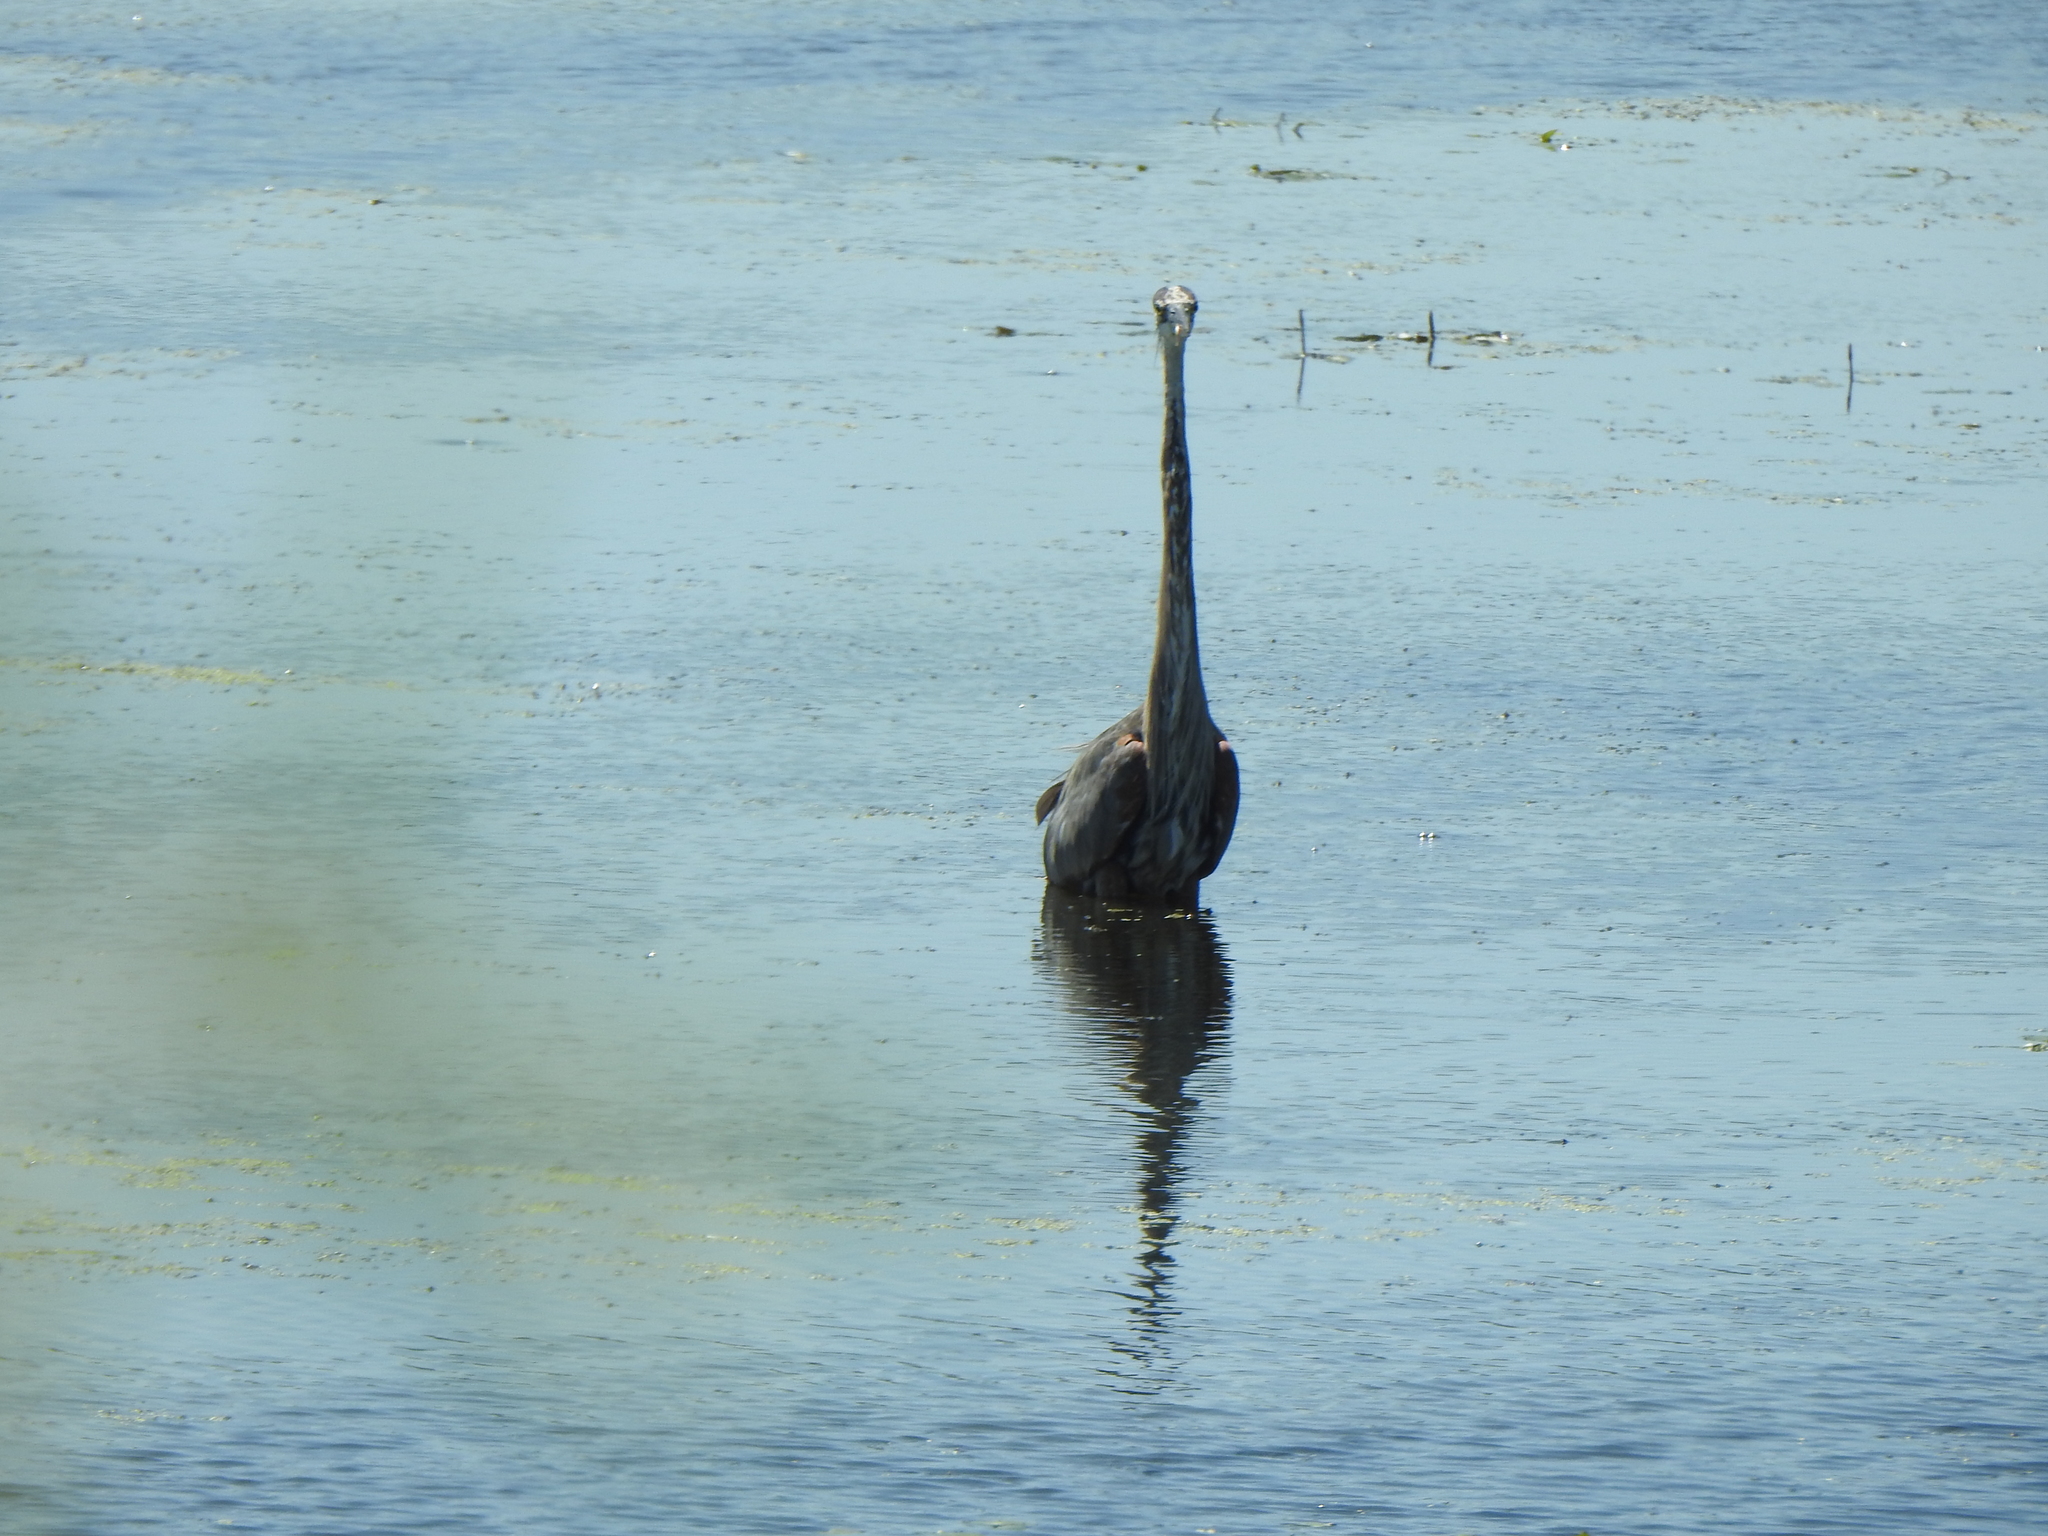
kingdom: Animalia
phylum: Chordata
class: Aves
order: Pelecaniformes
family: Ardeidae
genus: Ardea
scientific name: Ardea herodias
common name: Great blue heron
